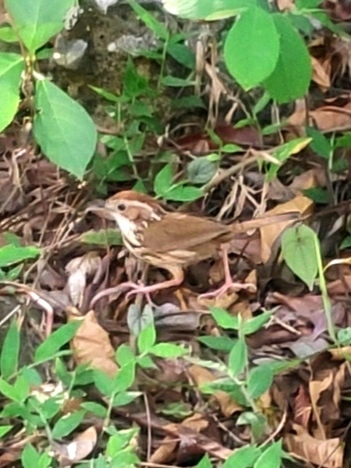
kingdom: Animalia
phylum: Chordata
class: Aves
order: Passeriformes
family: Pellorneidae
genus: Pellorneum
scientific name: Pellorneum ruficeps
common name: Puff-throated babbler
